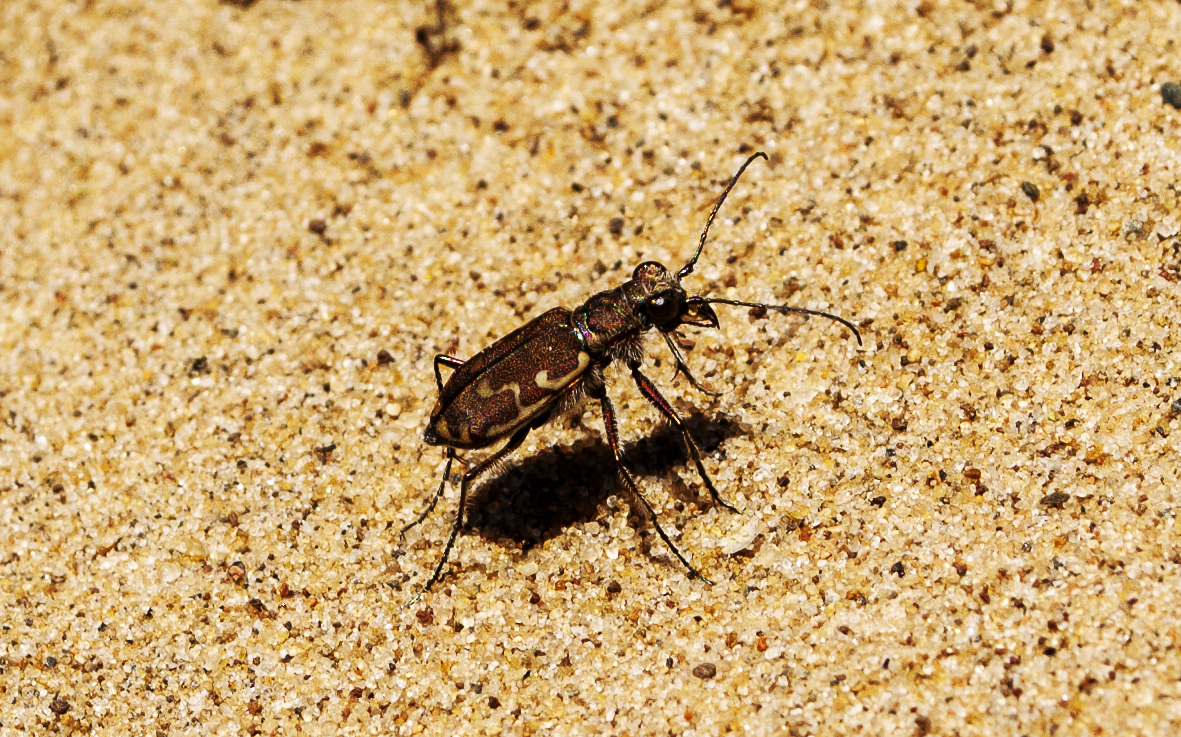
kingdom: Animalia
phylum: Arthropoda
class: Insecta
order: Coleoptera
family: Carabidae
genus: Cicindela
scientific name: Cicindela repanda
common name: Bronzed tiger beetle
